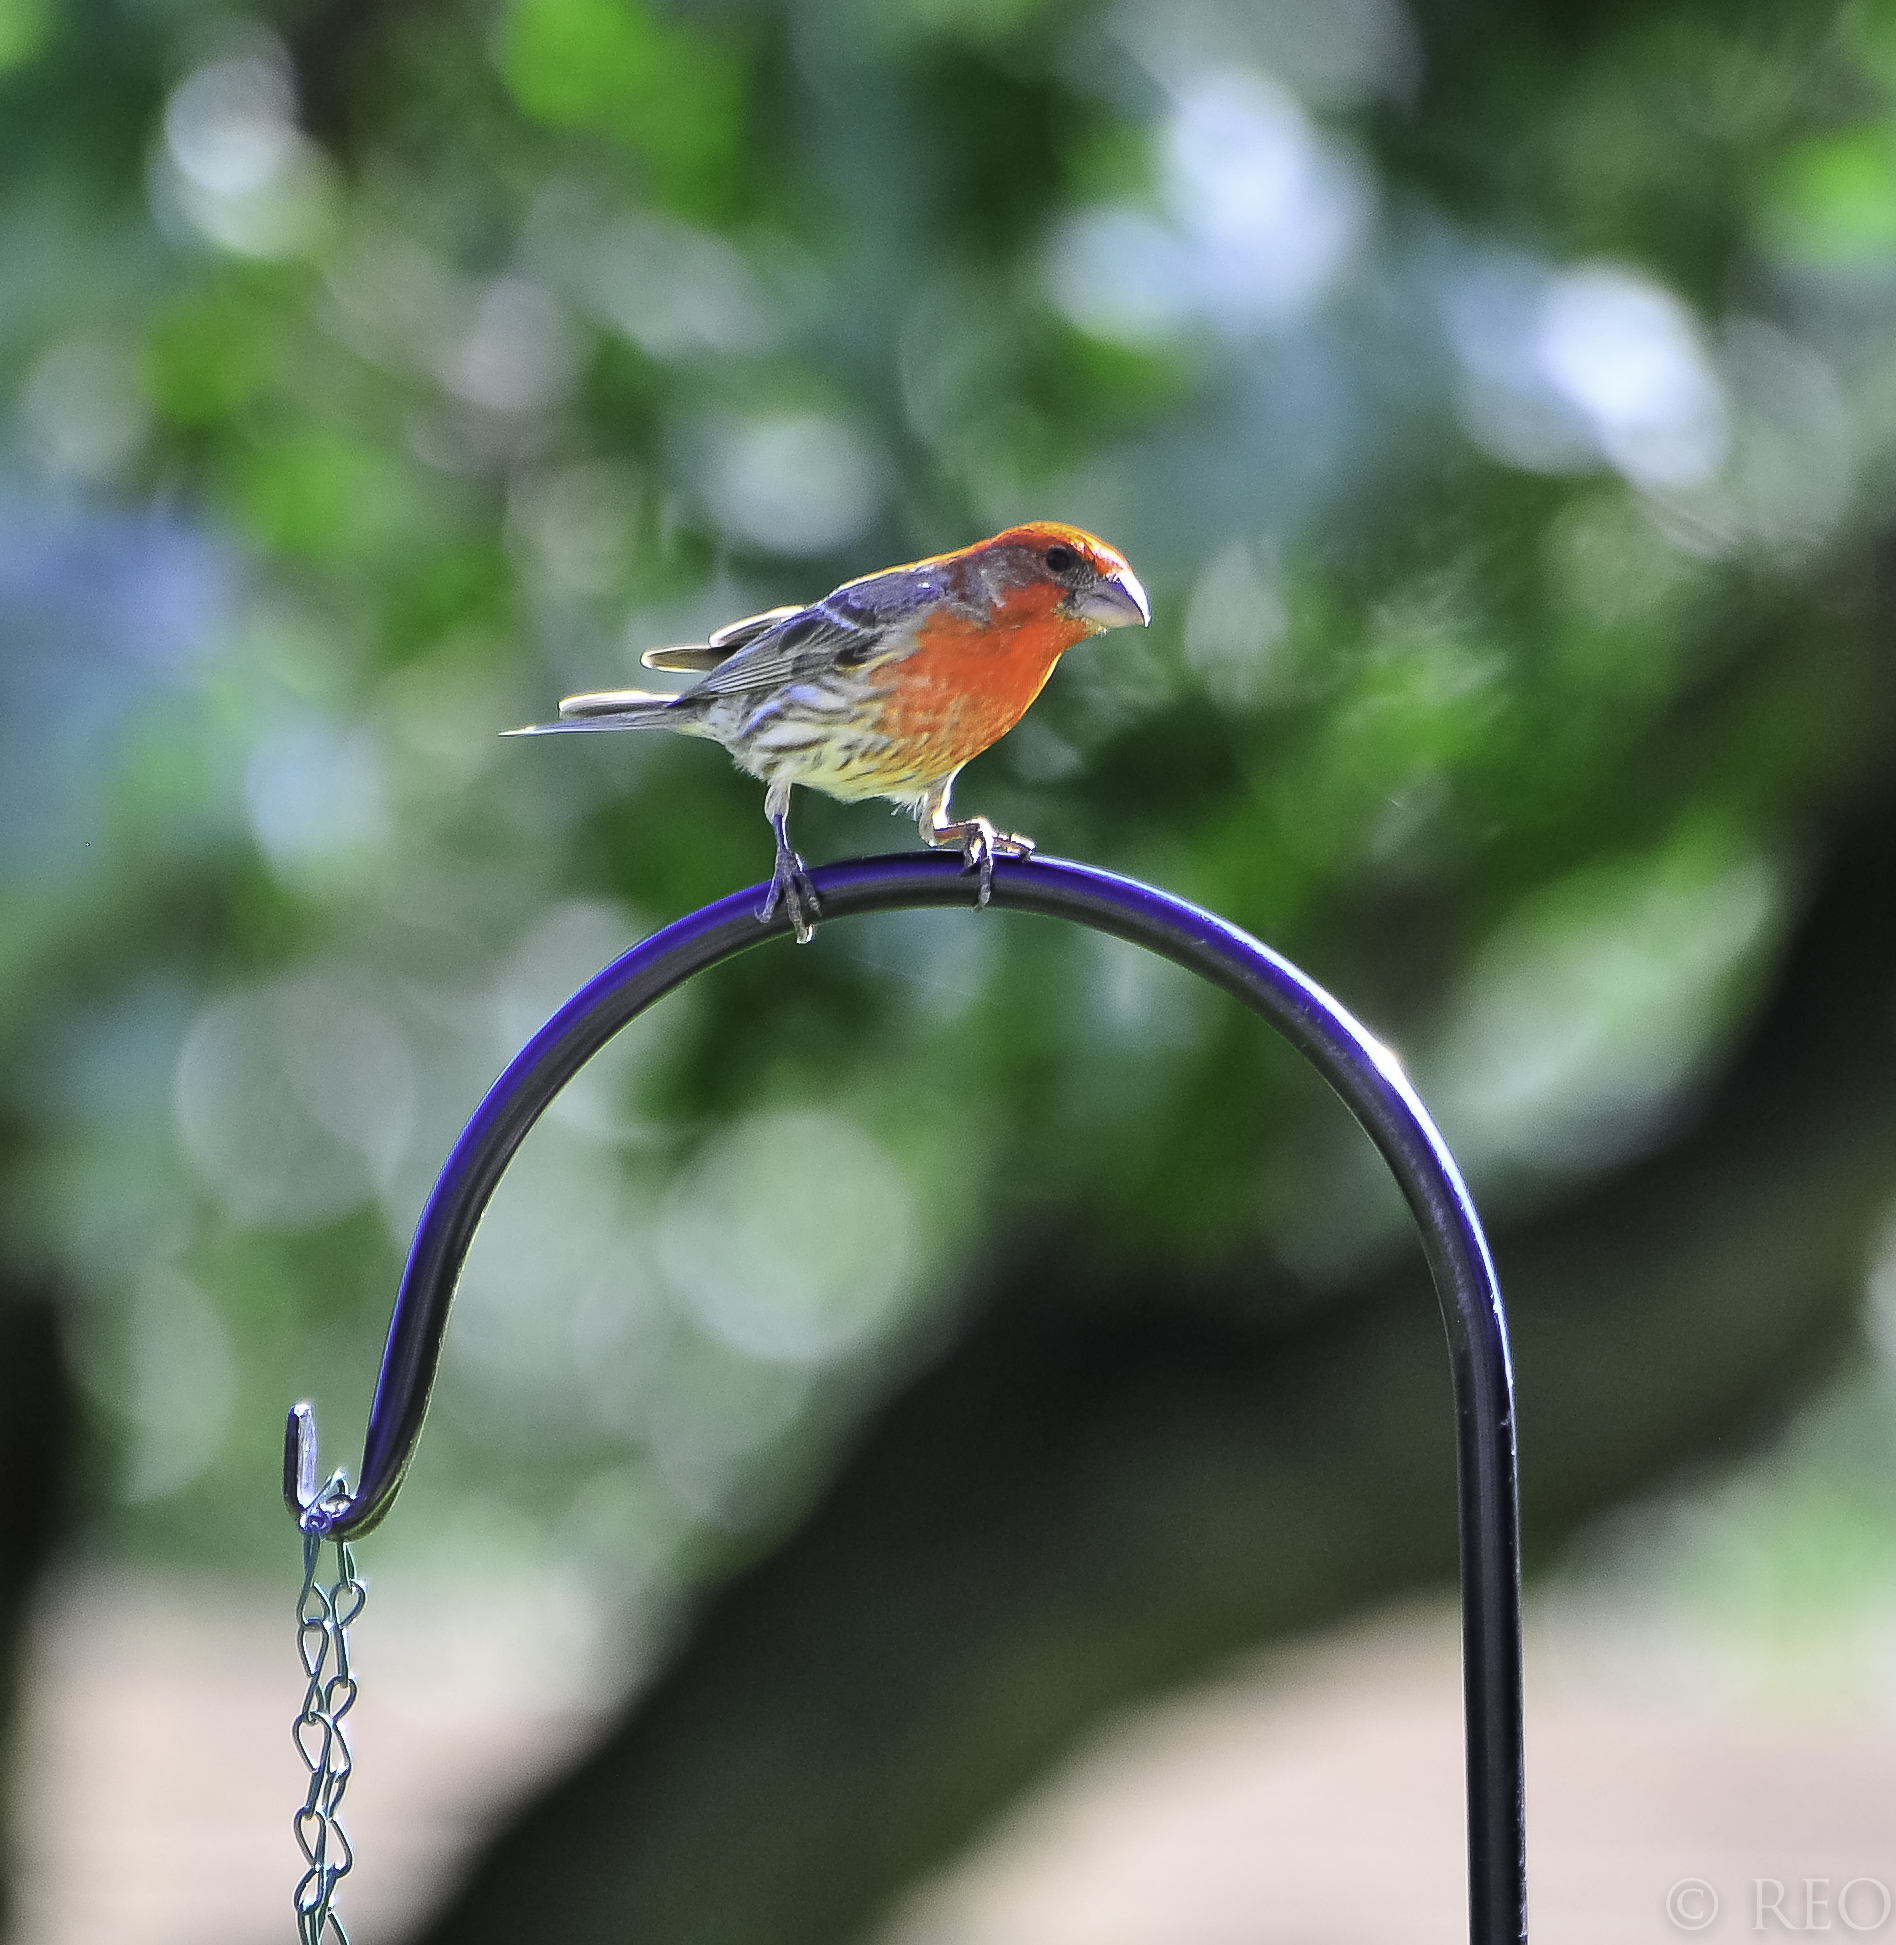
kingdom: Animalia
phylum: Chordata
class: Aves
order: Passeriformes
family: Fringillidae
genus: Haemorhous
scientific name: Haemorhous mexicanus
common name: House finch
